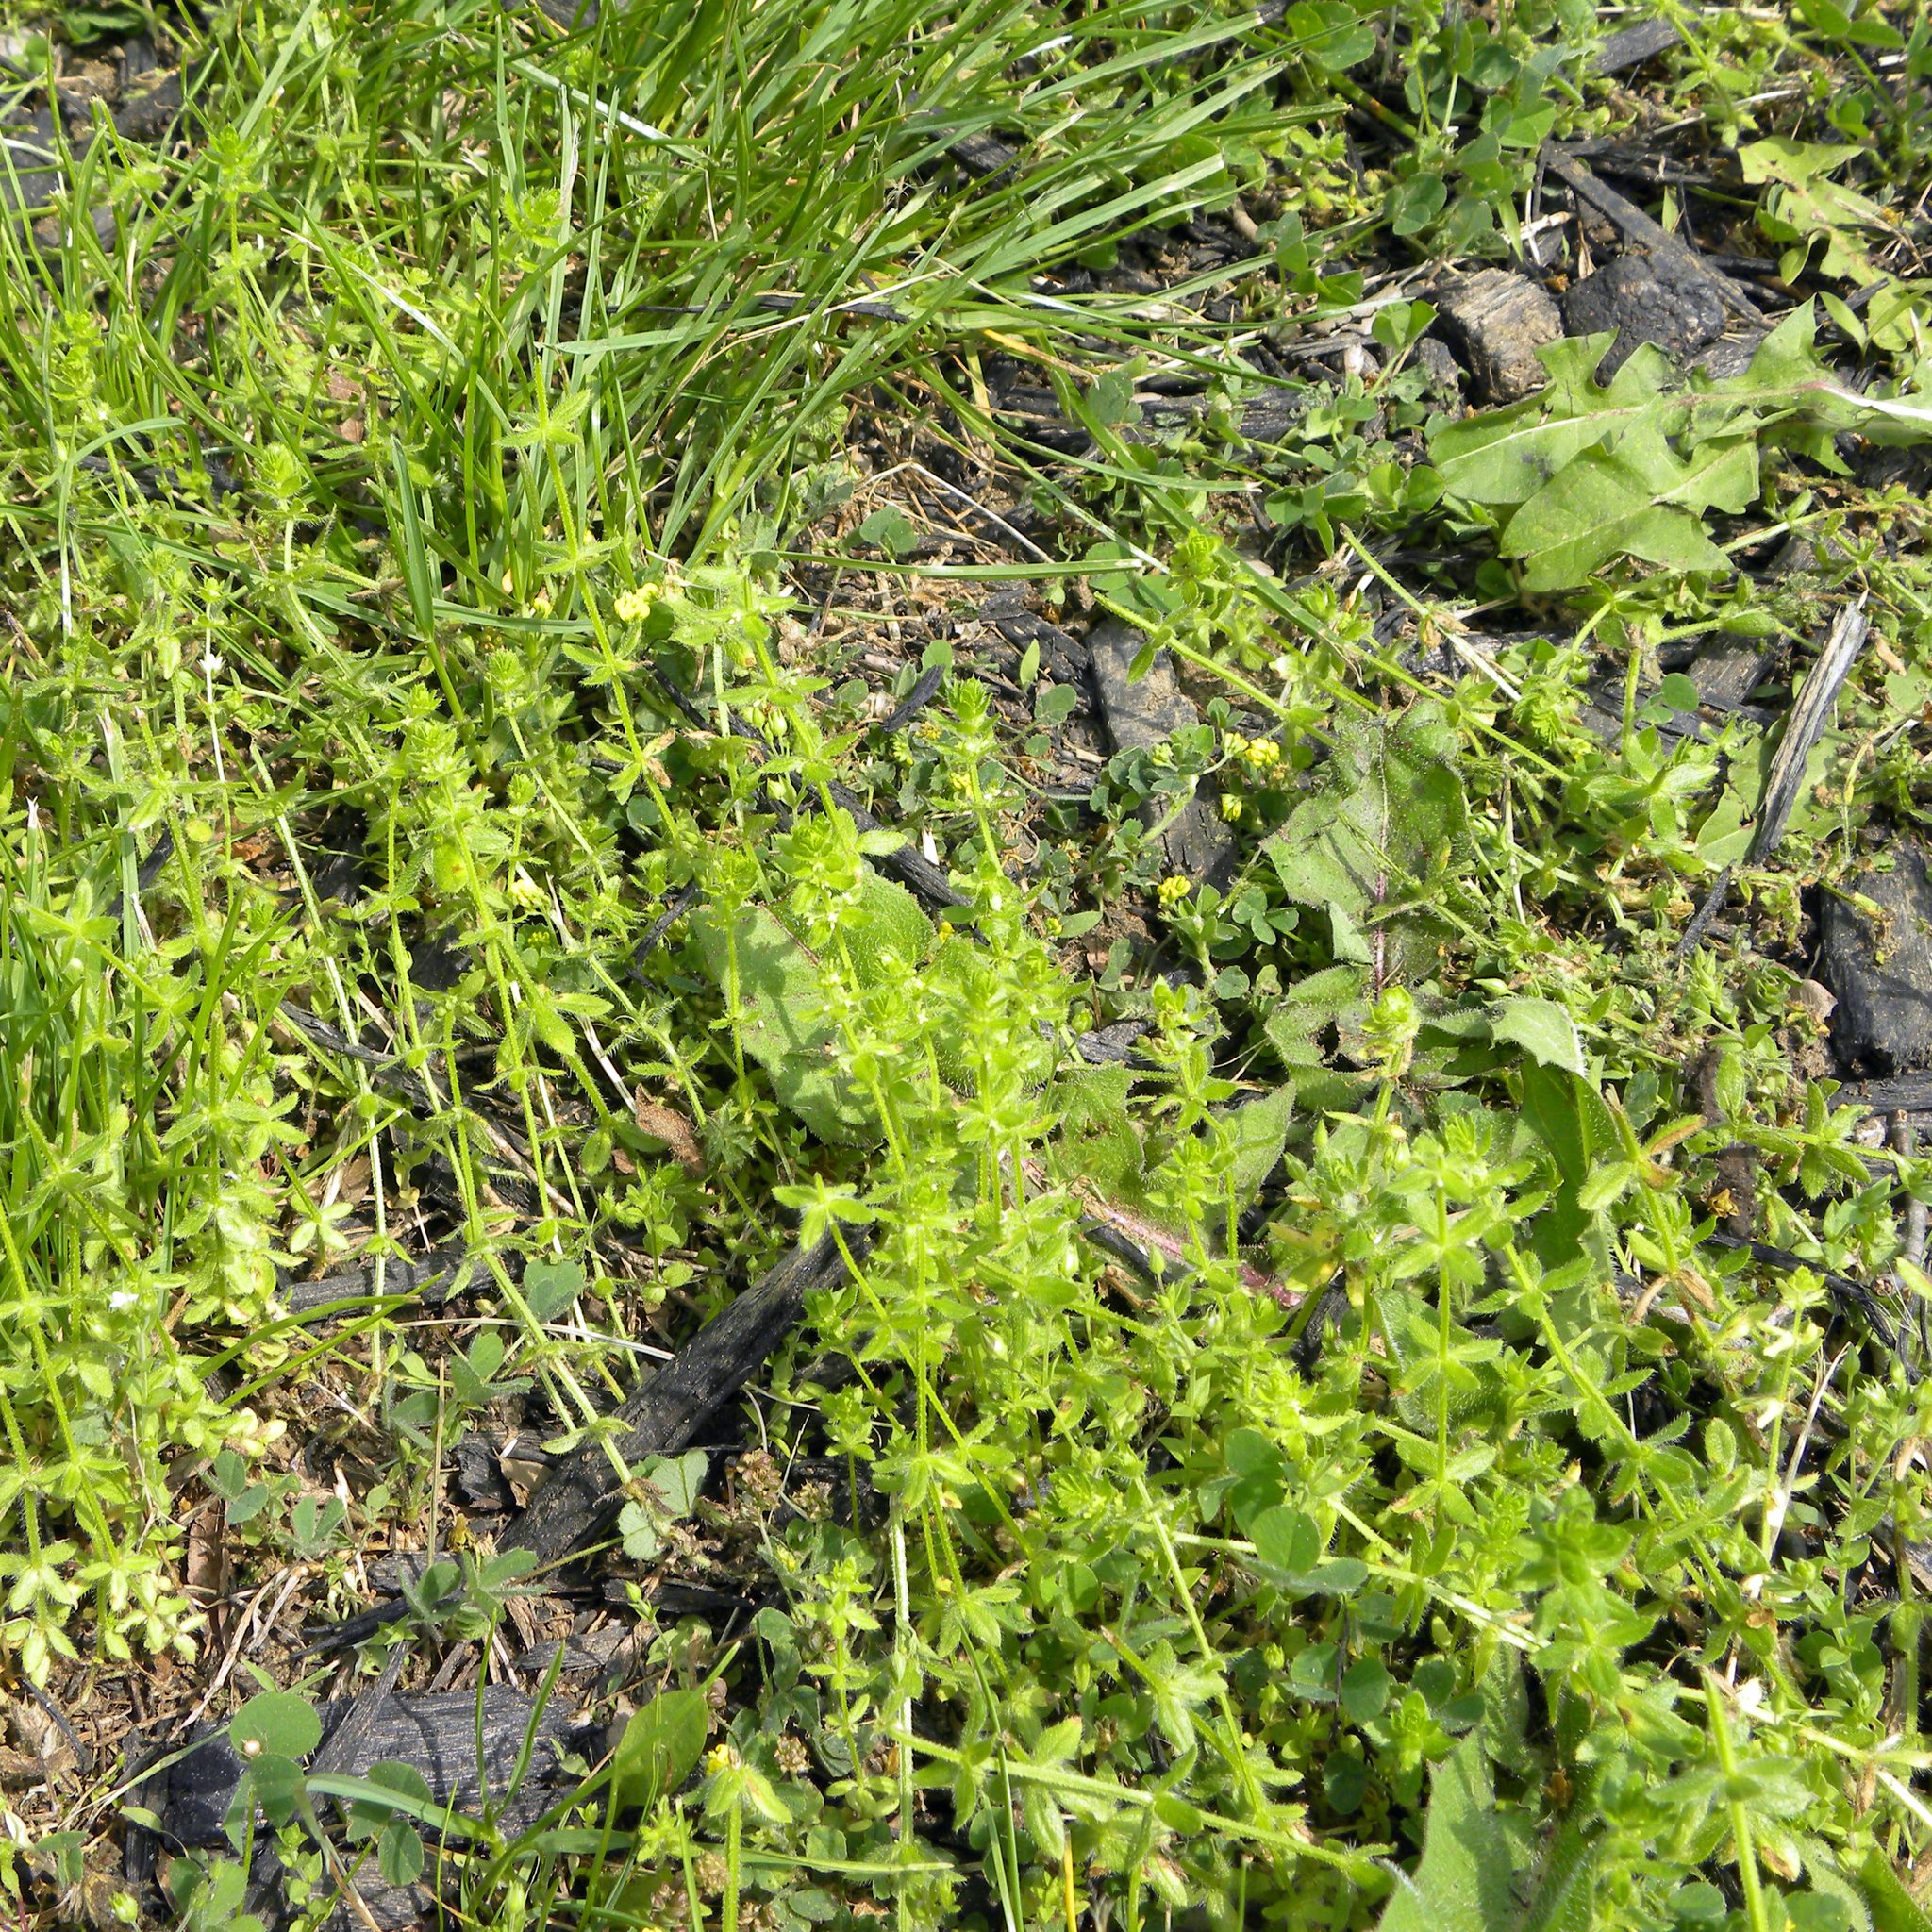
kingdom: Plantae
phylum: Tracheophyta
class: Magnoliopsida
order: Gentianales
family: Rubiaceae
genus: Cruciata
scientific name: Cruciata pedemontana
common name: Piedmont bedstraw
